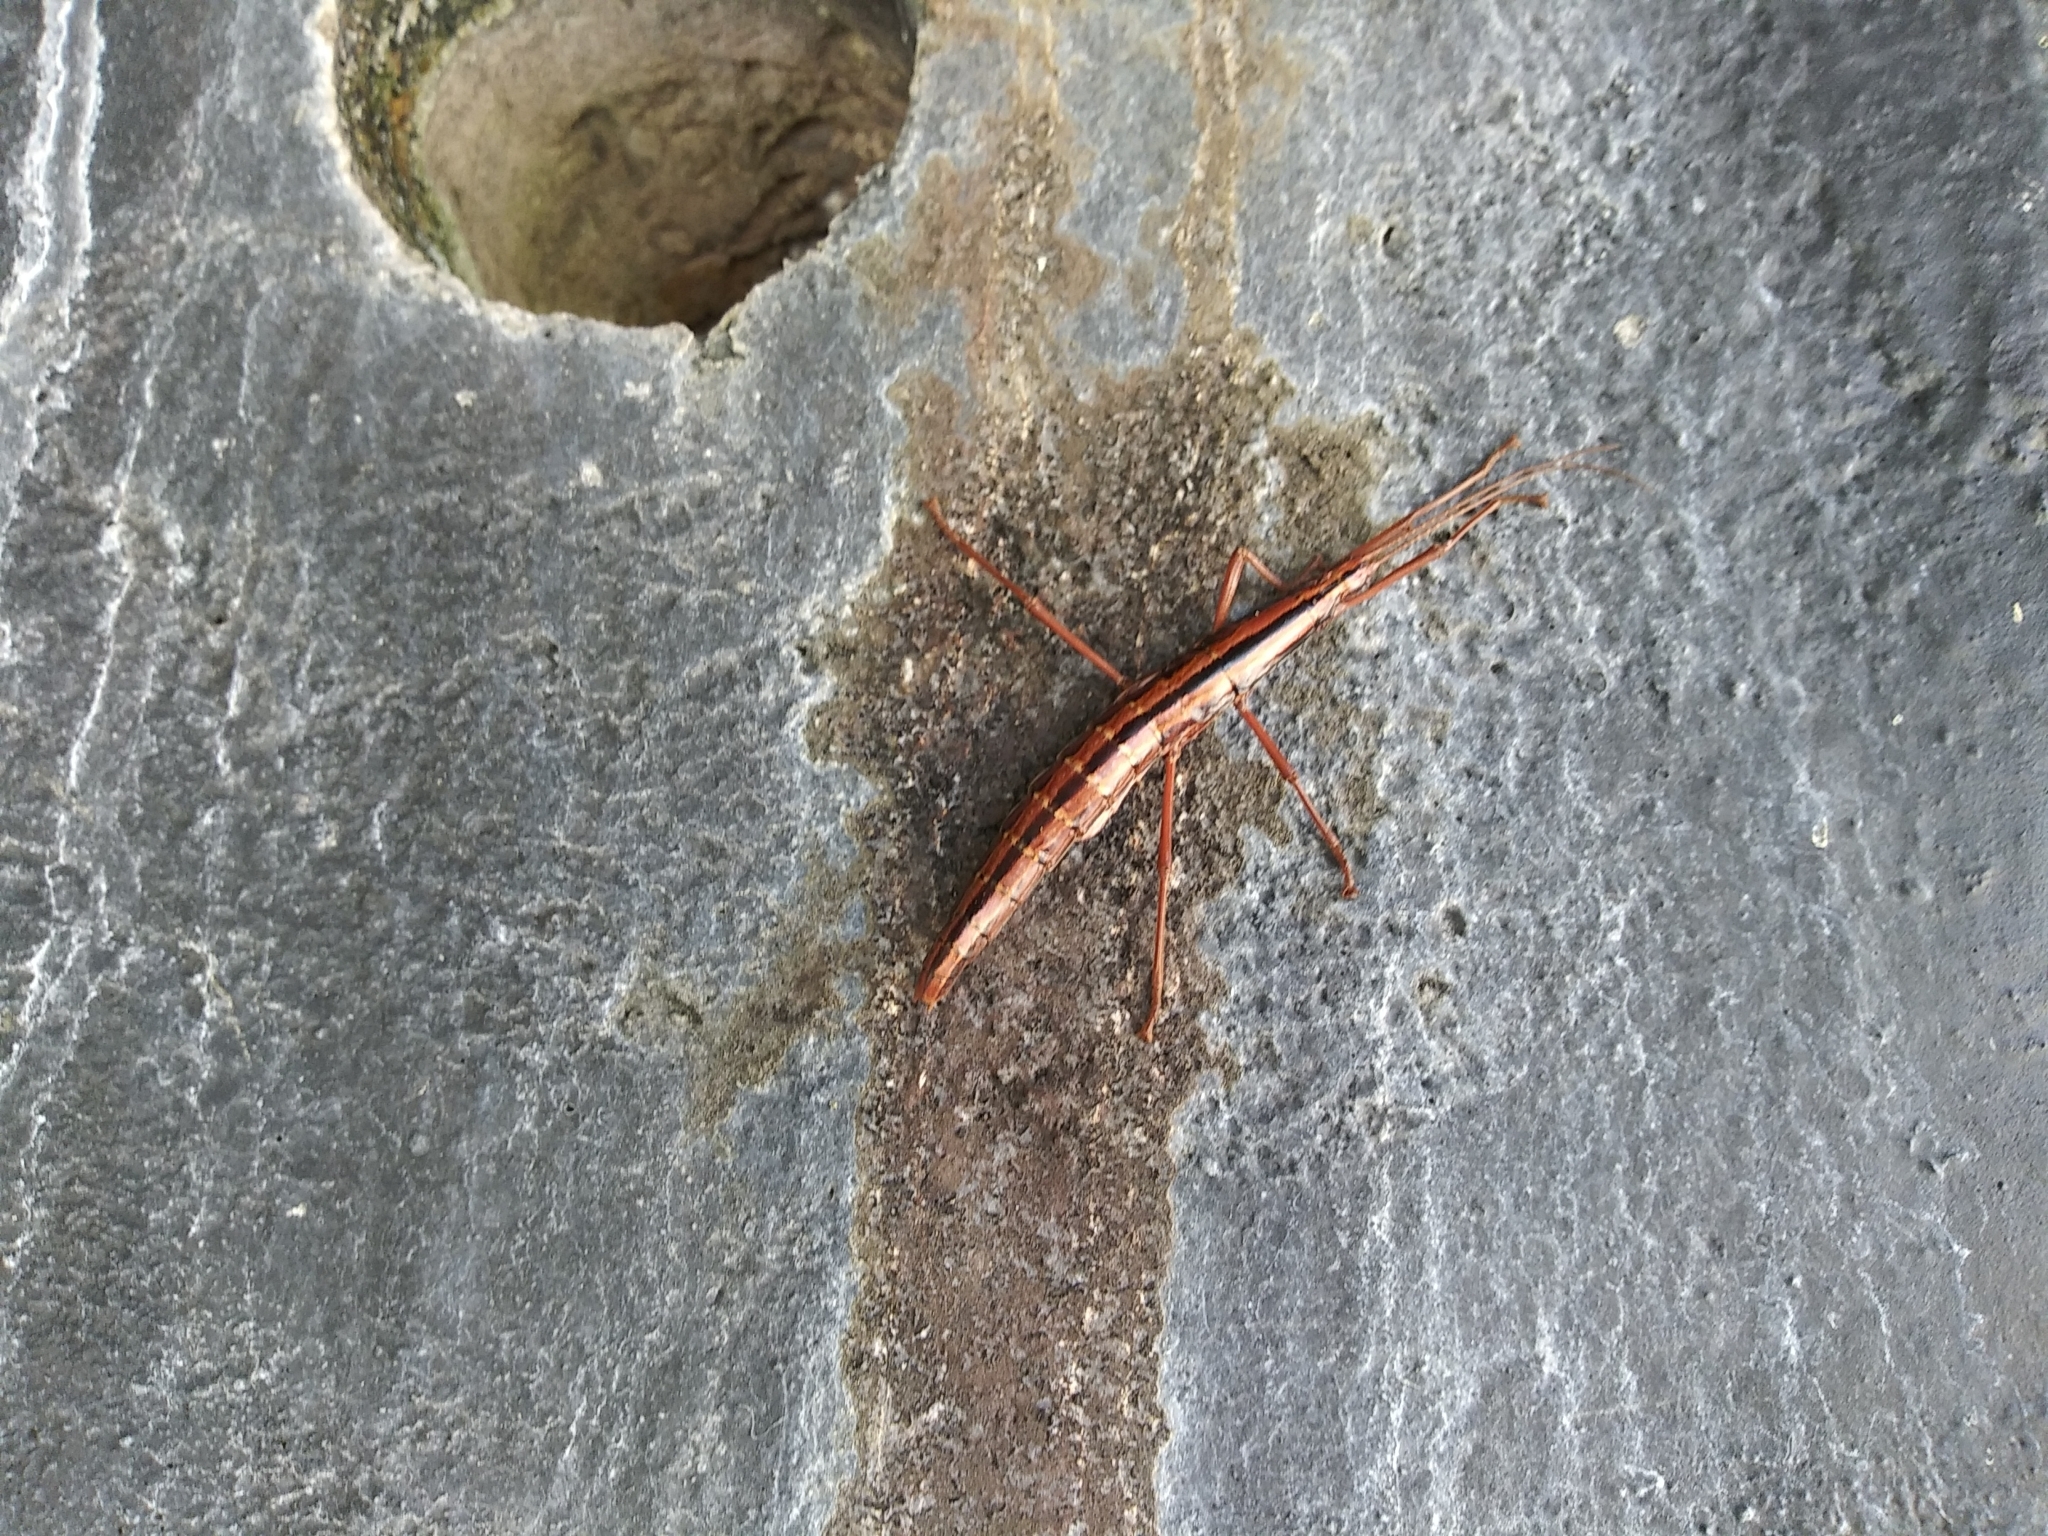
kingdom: Animalia
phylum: Arthropoda
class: Insecta
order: Phasmida
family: Pseudophasmatidae
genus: Anisomorpha
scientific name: Anisomorpha buprestoides
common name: Florida stick insect
